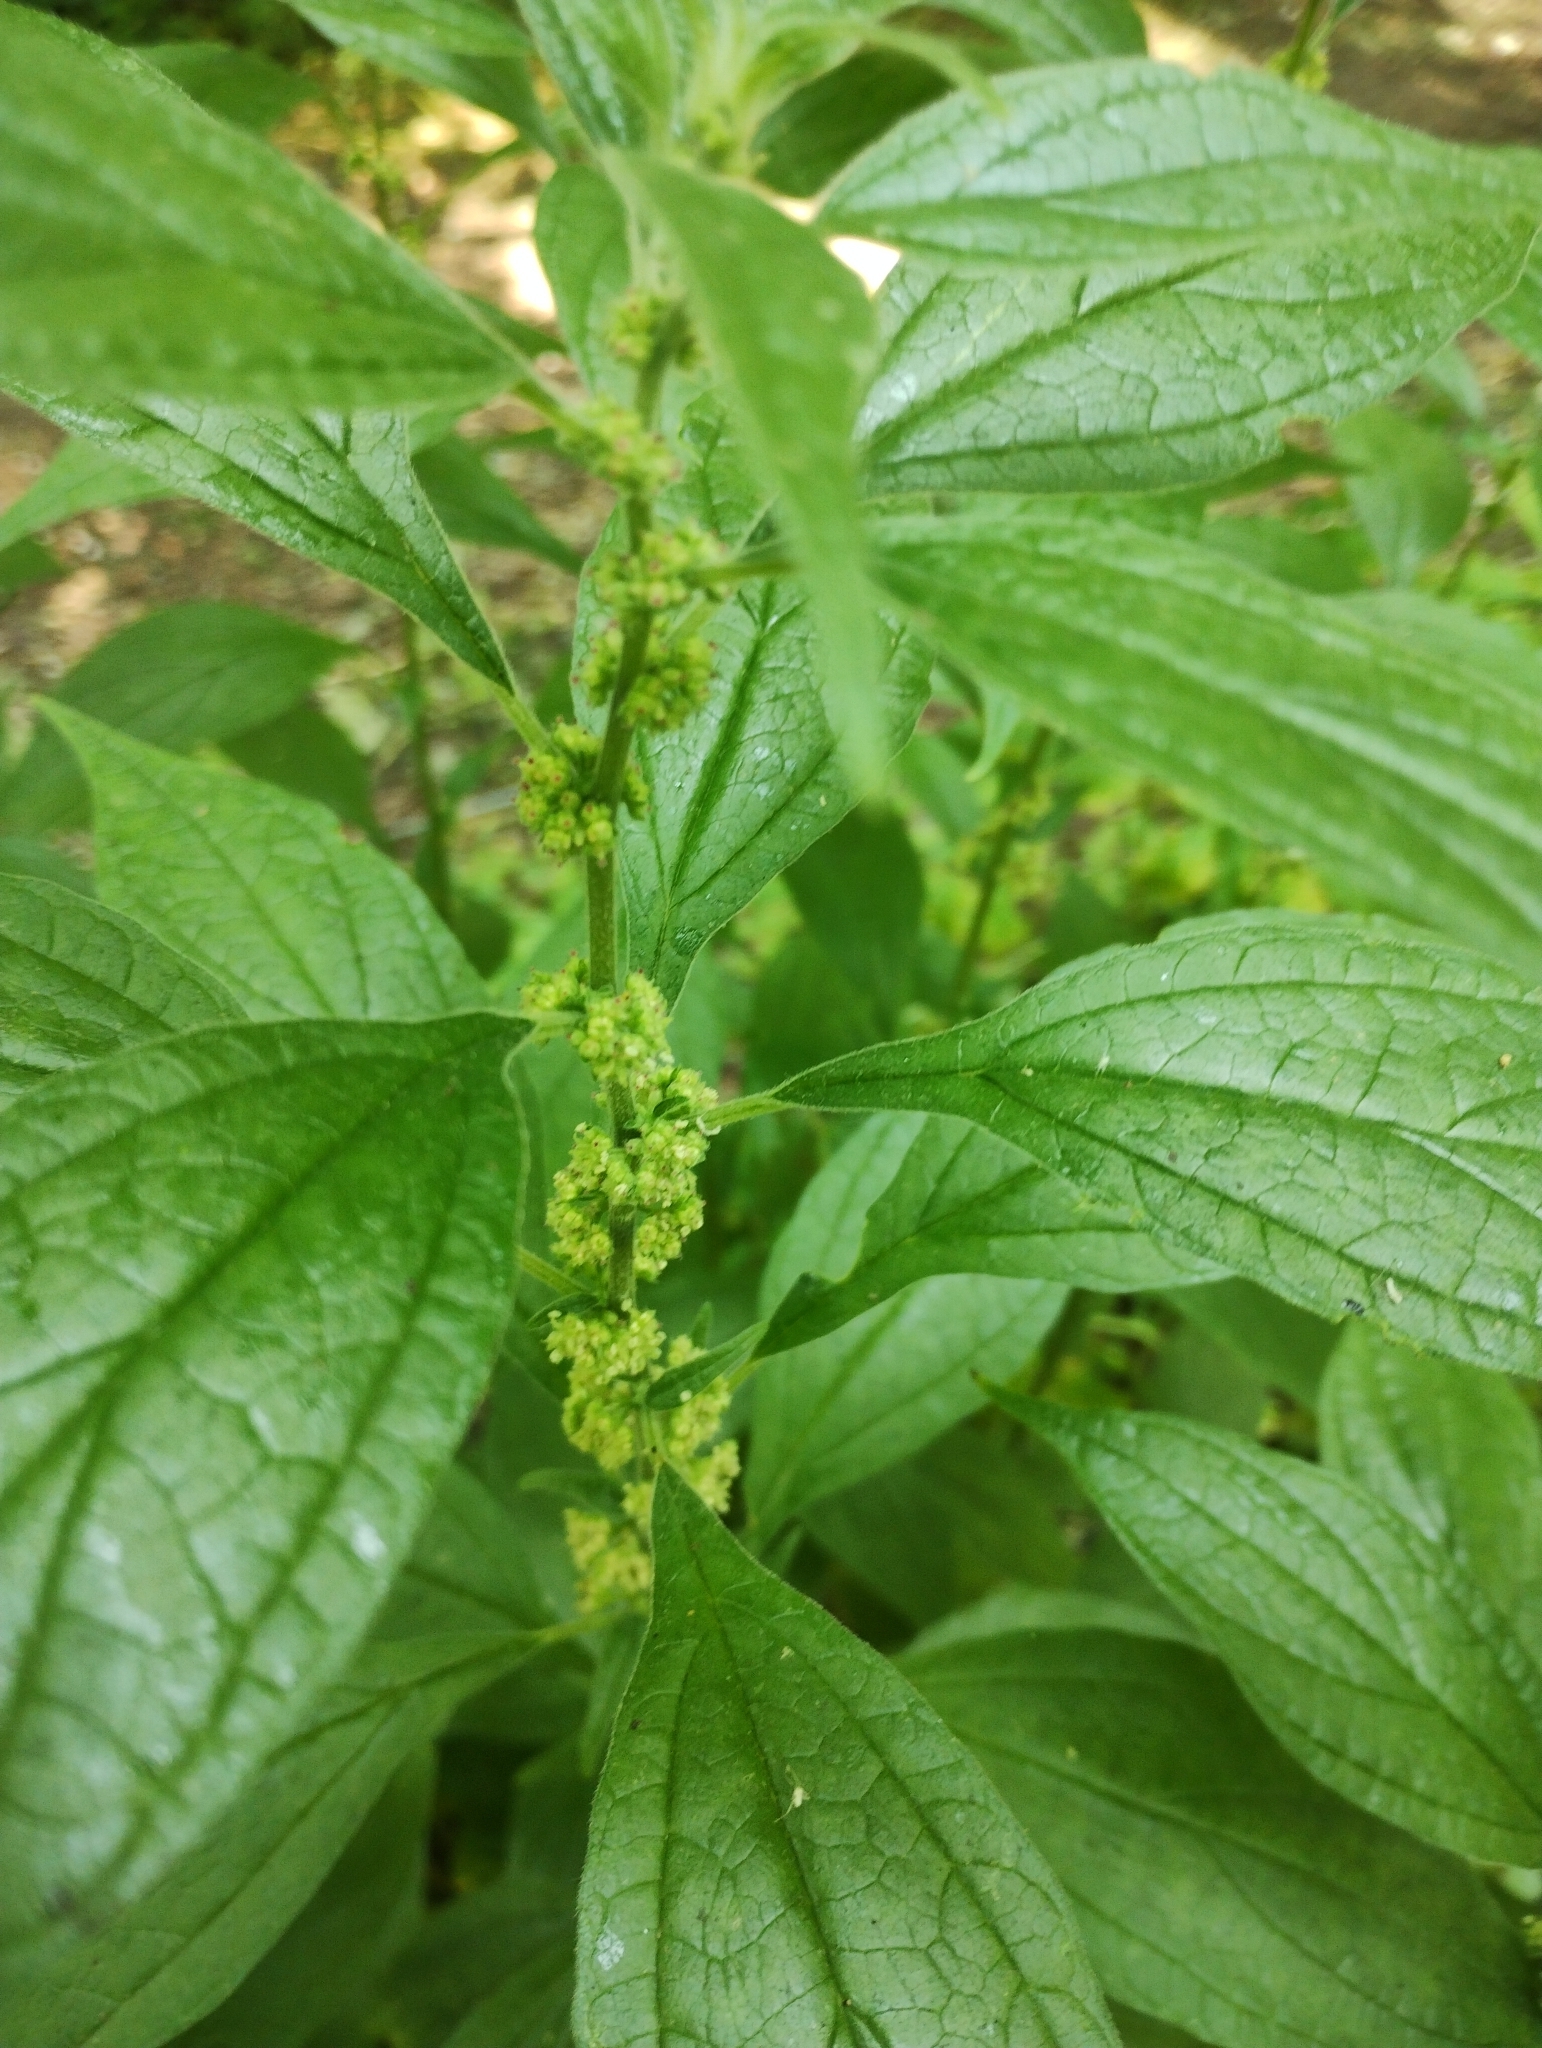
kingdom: Plantae
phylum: Tracheophyta
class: Magnoliopsida
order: Rosales
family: Urticaceae
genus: Parietaria
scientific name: Parietaria officinalis
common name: Eastern pellitory-of-the-wall
